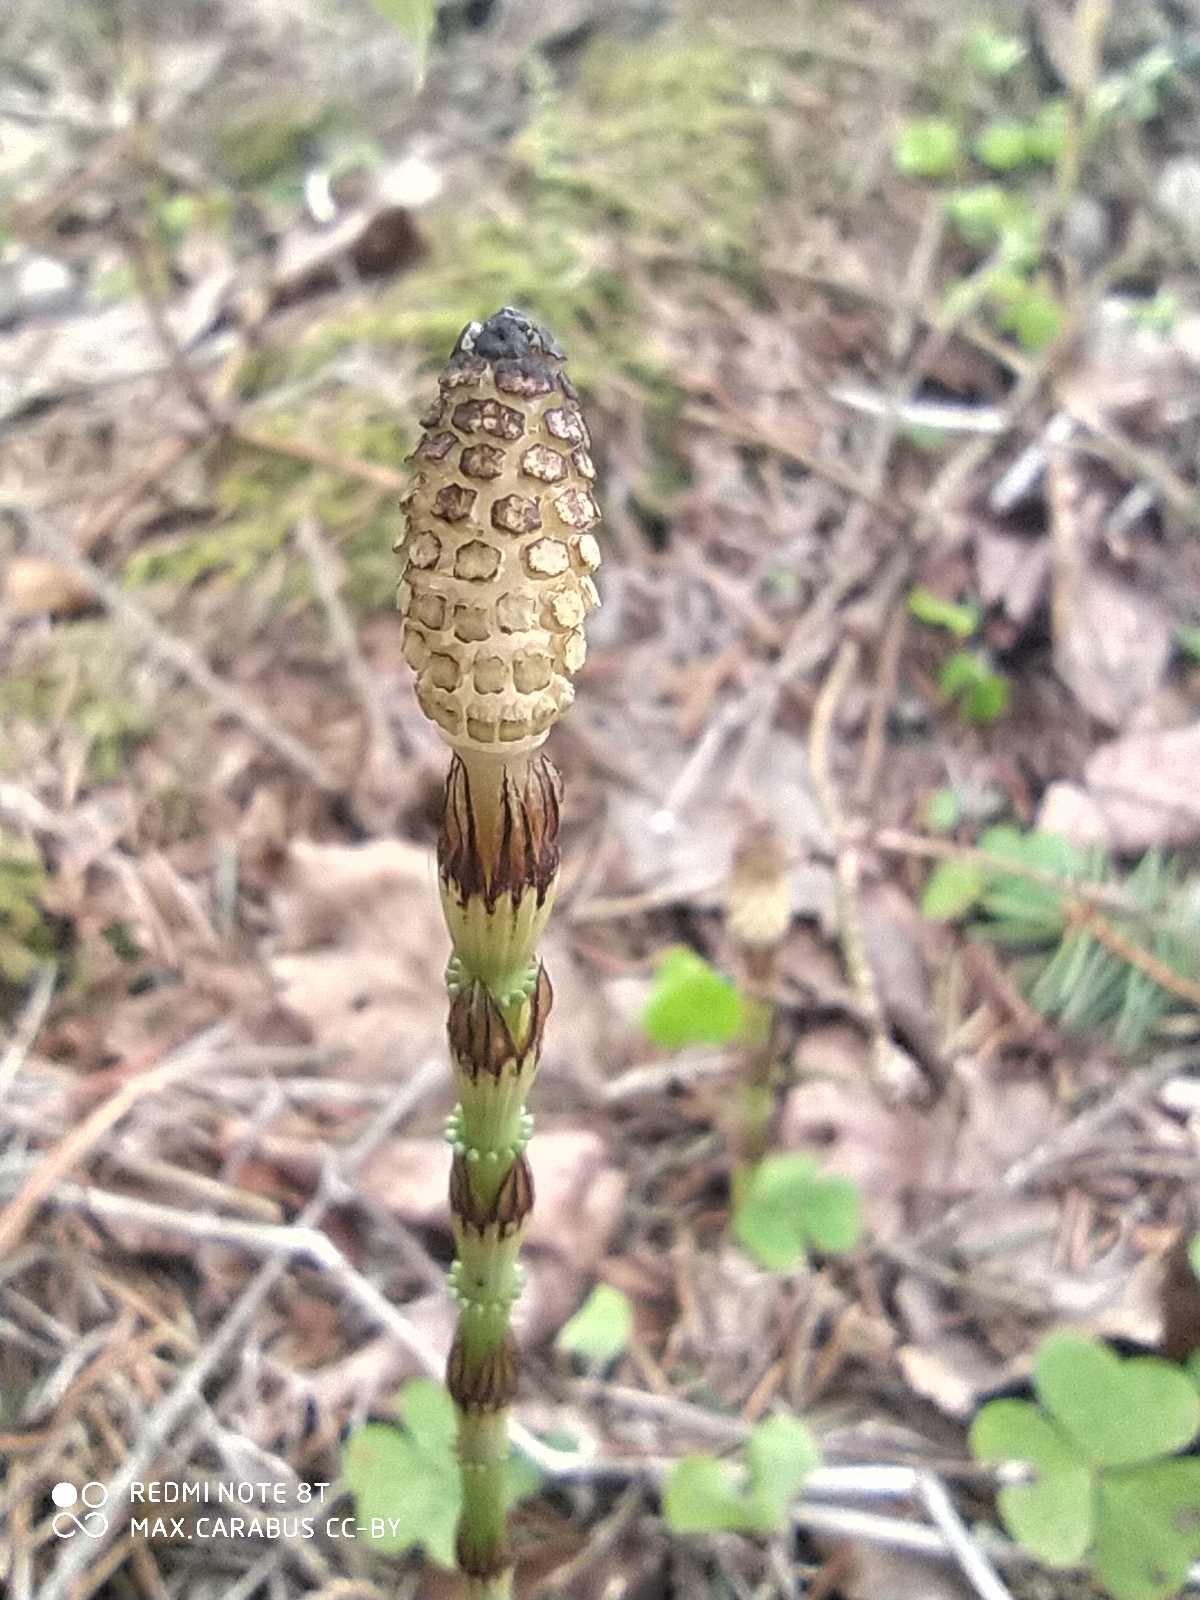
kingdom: Plantae
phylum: Tracheophyta
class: Polypodiopsida
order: Equisetales
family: Equisetaceae
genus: Equisetum
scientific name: Equisetum pratense
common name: Meadow horsetail
